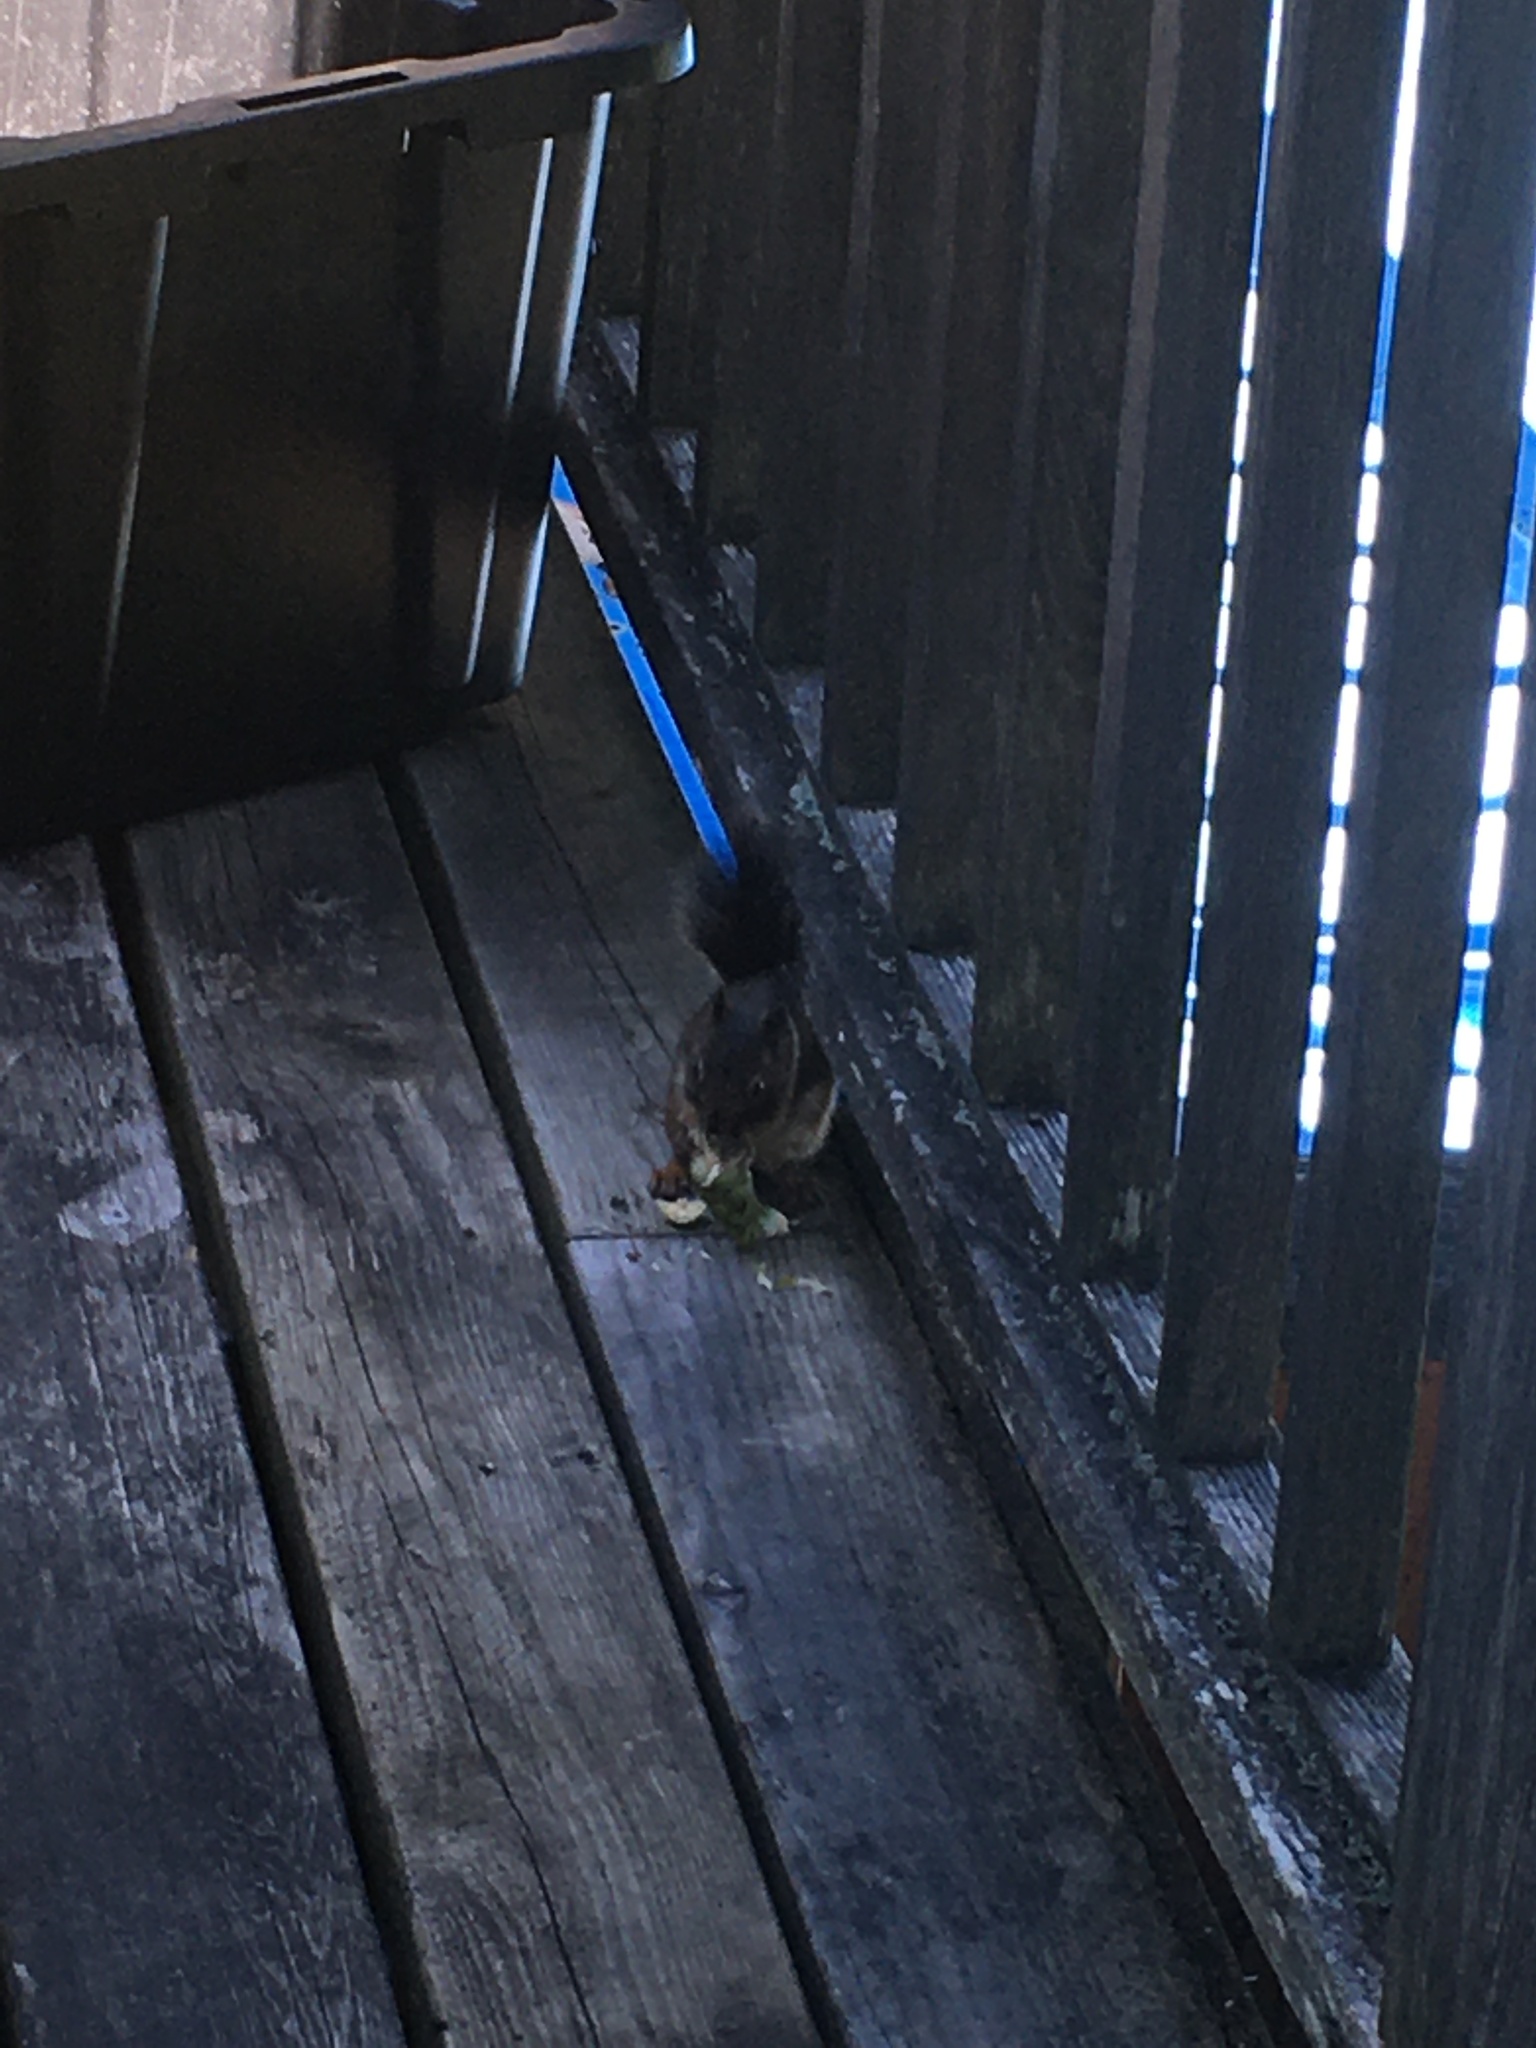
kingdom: Animalia
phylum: Chordata
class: Mammalia
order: Rodentia
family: Sciuridae
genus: Tamiasciurus
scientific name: Tamiasciurus hudsonicus
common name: Red squirrel
